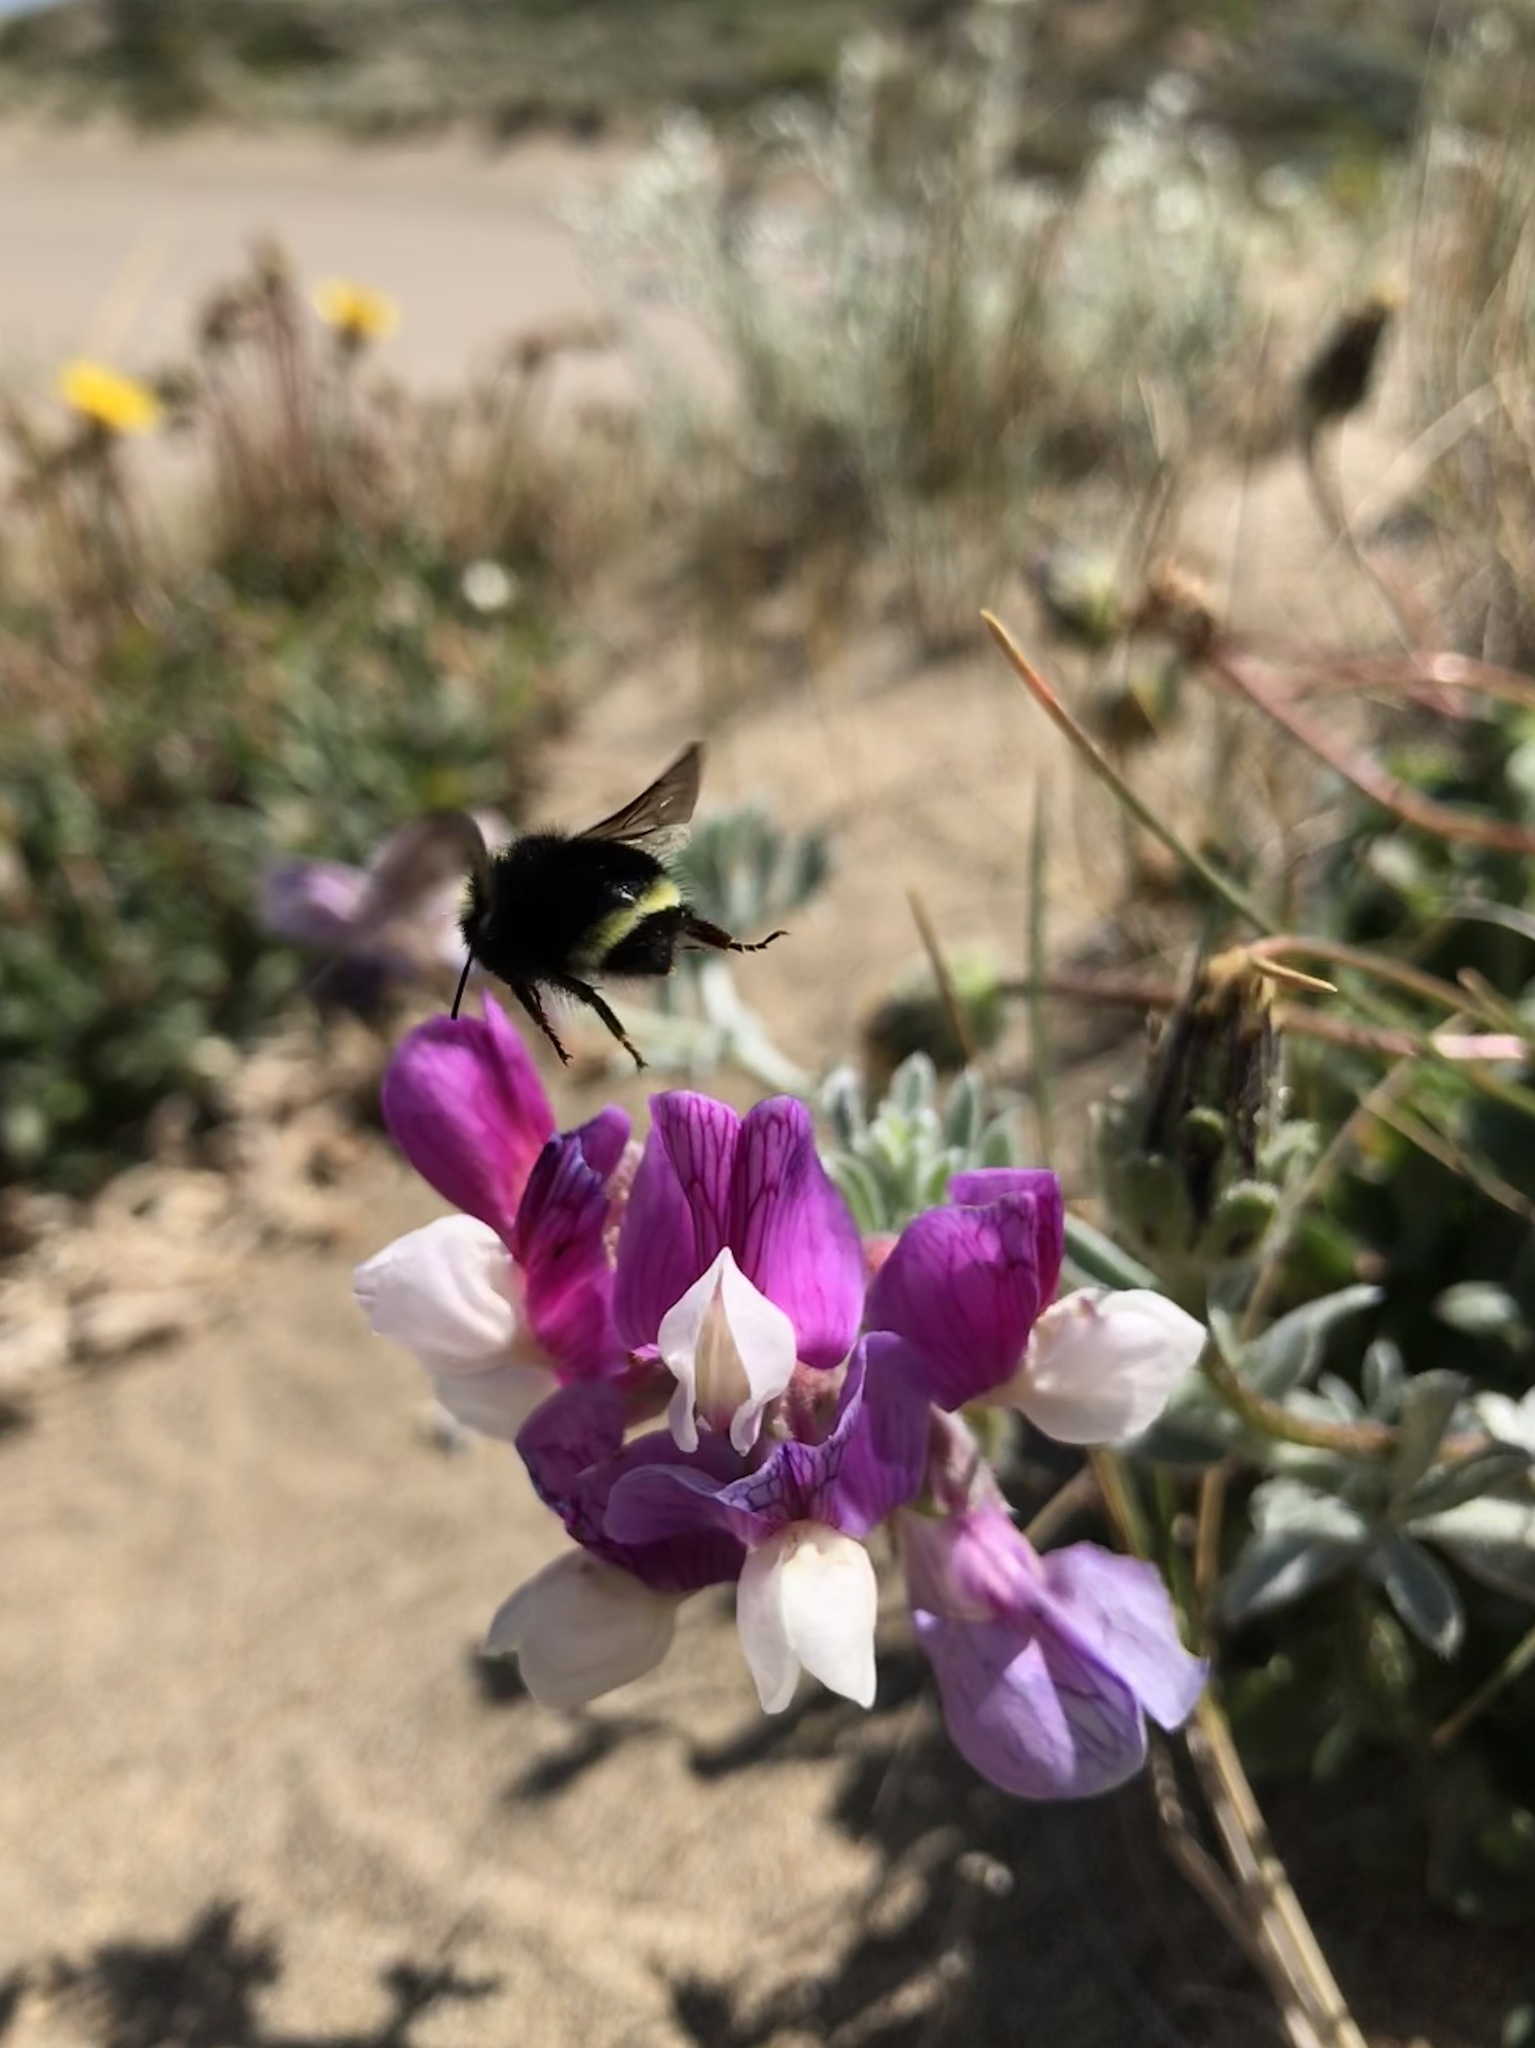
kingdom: Animalia
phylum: Arthropoda
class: Insecta
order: Hymenoptera
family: Apidae
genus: Pyrobombus
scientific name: Pyrobombus
